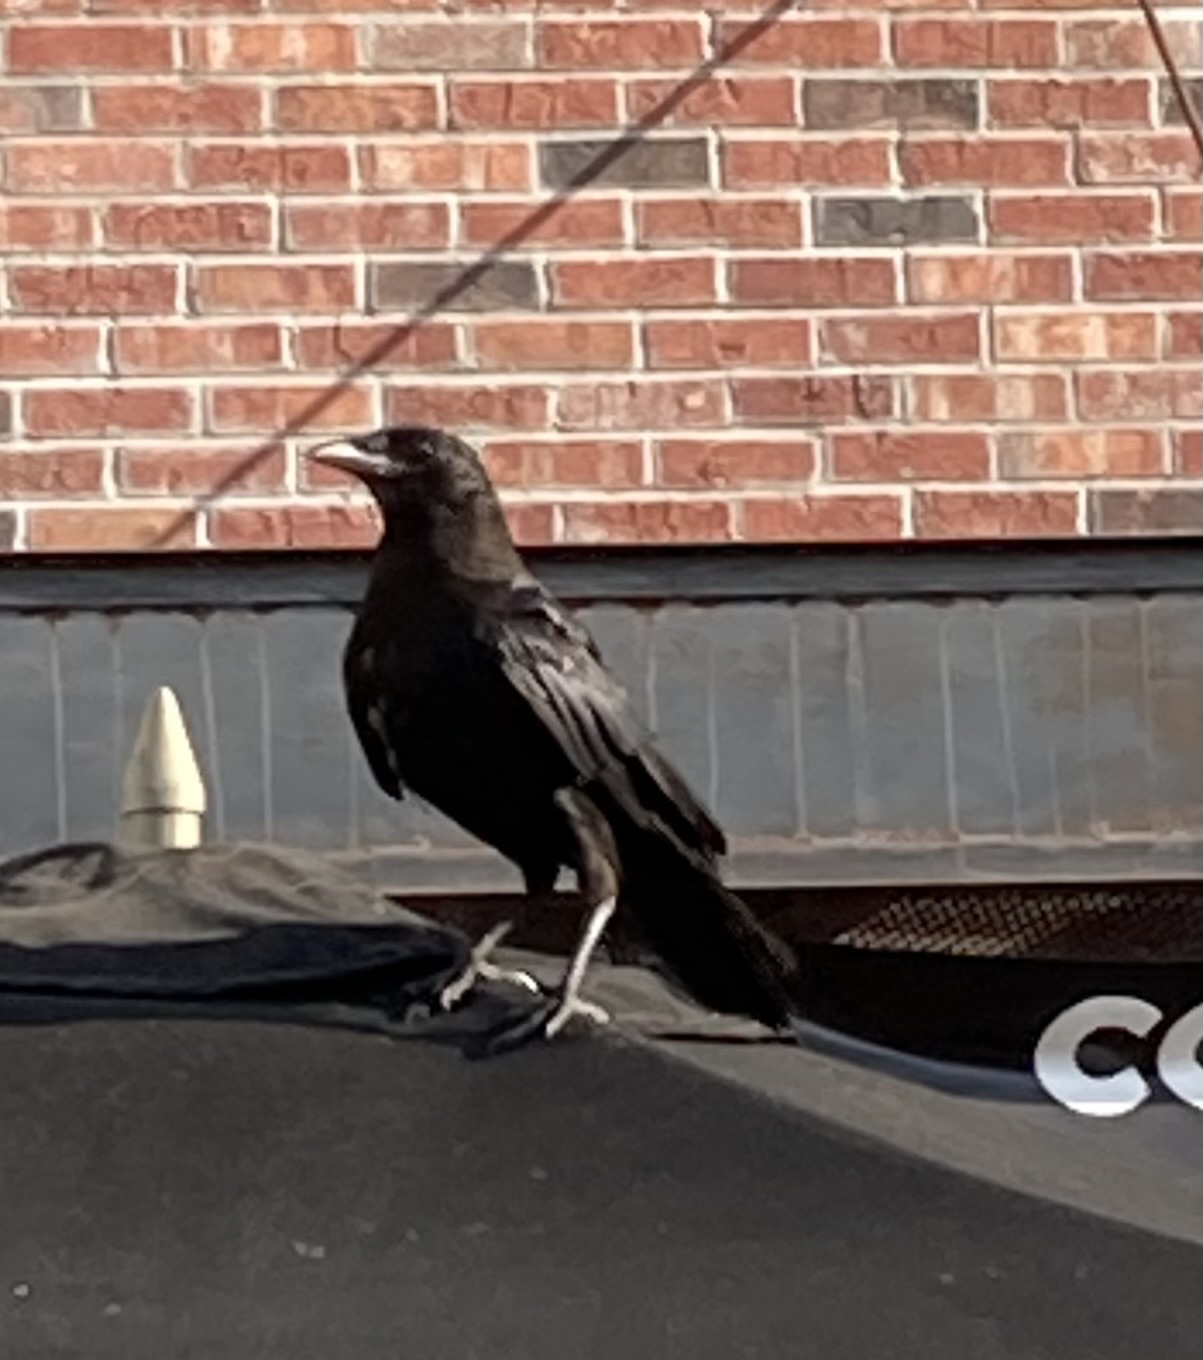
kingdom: Animalia
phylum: Chordata
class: Aves
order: Passeriformes
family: Corvidae
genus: Corvus
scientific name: Corvus brachyrhynchos
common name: American crow
